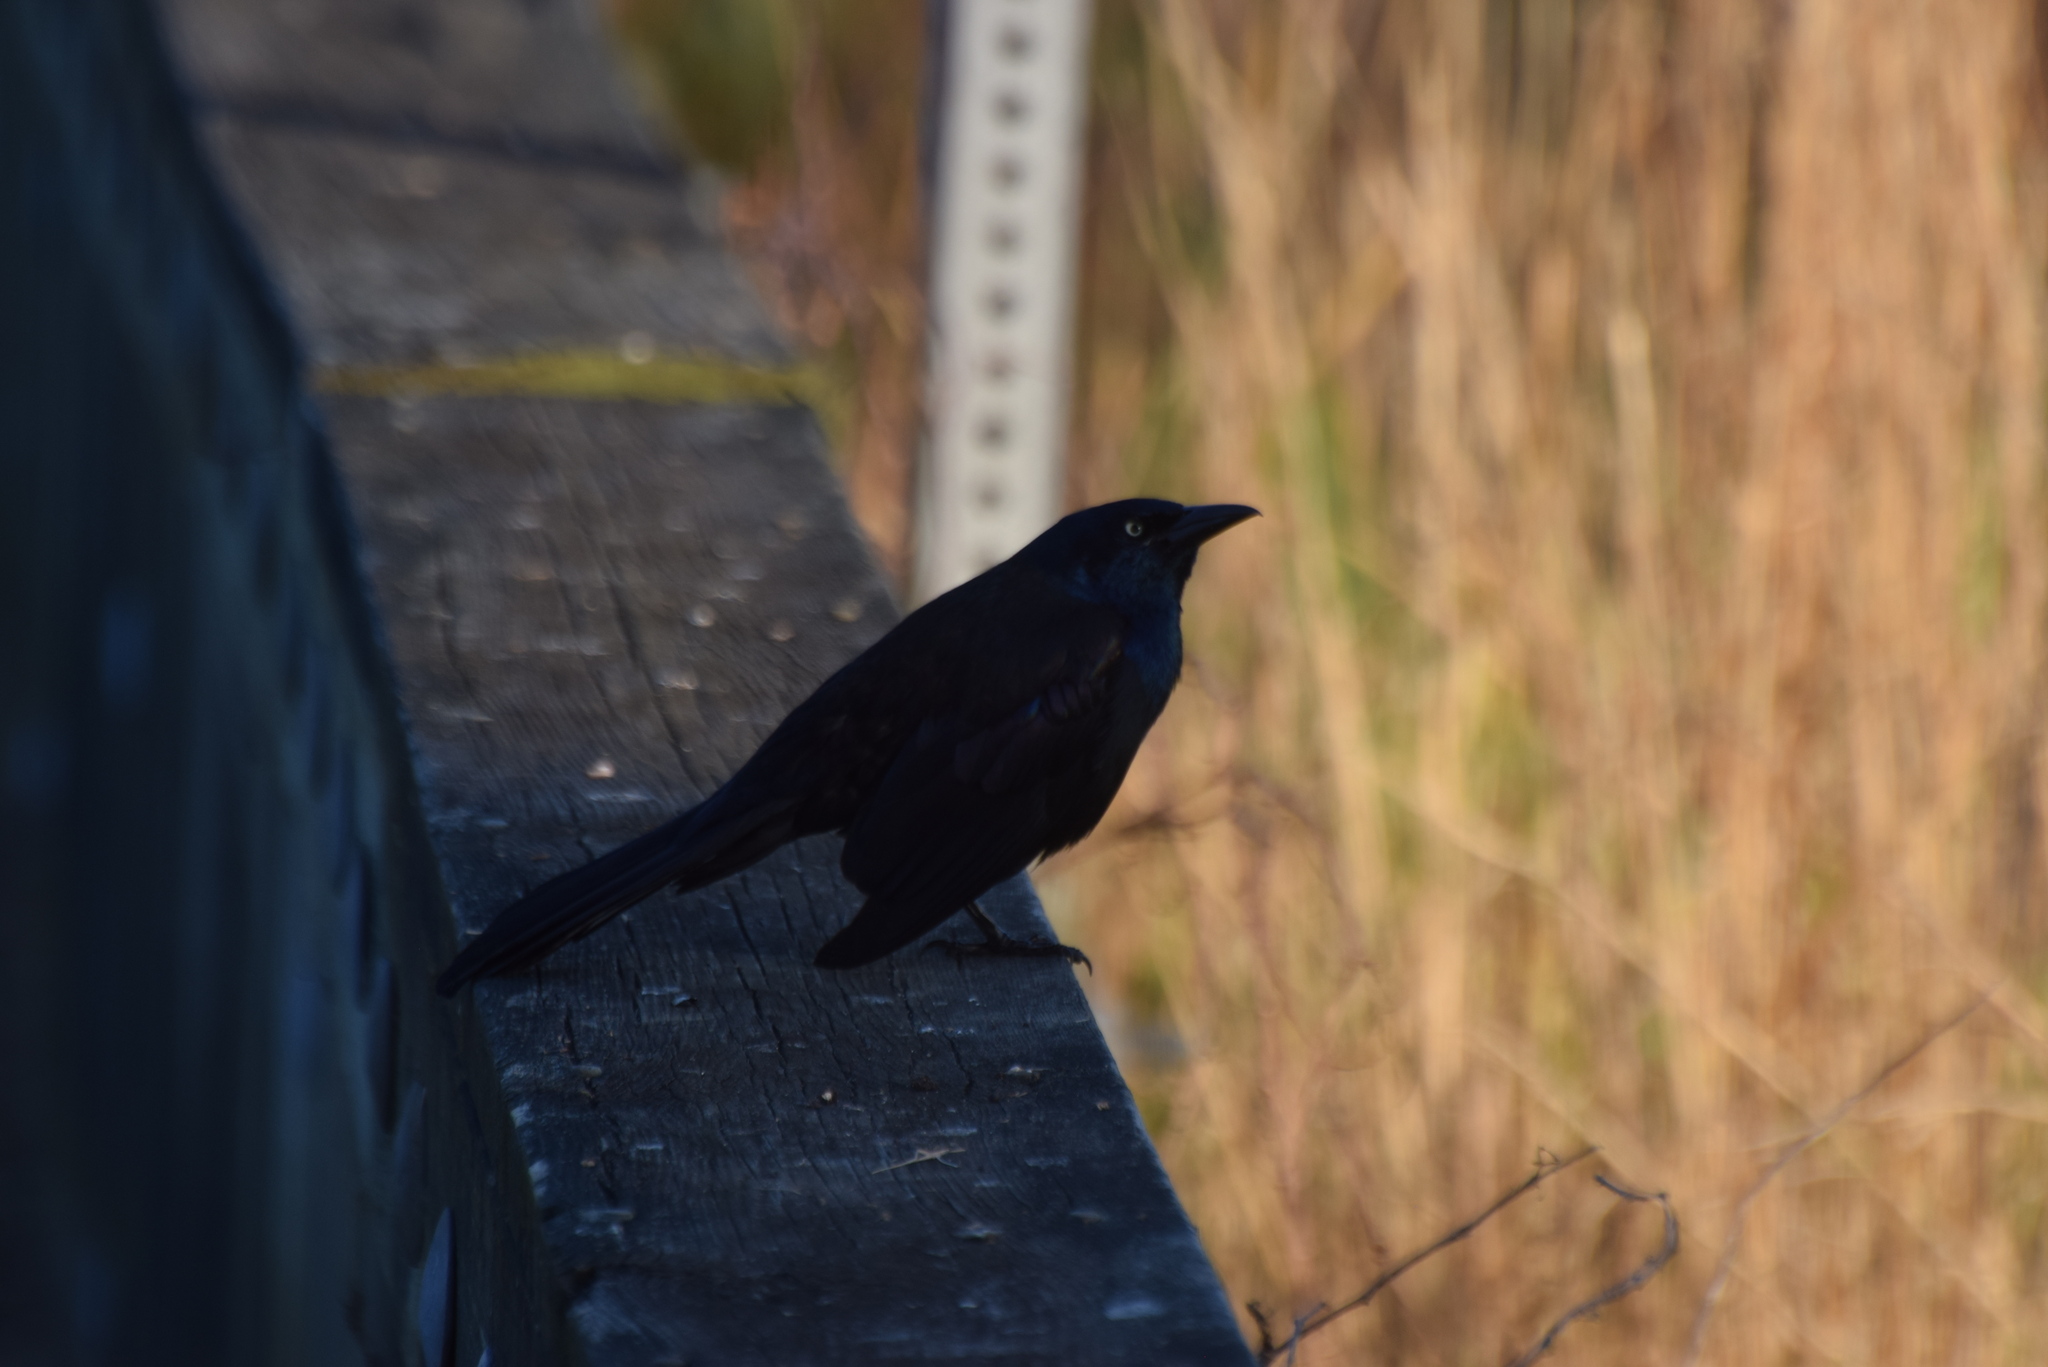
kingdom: Animalia
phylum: Chordata
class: Aves
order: Passeriformes
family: Icteridae
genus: Quiscalus
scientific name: Quiscalus quiscula
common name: Common grackle
